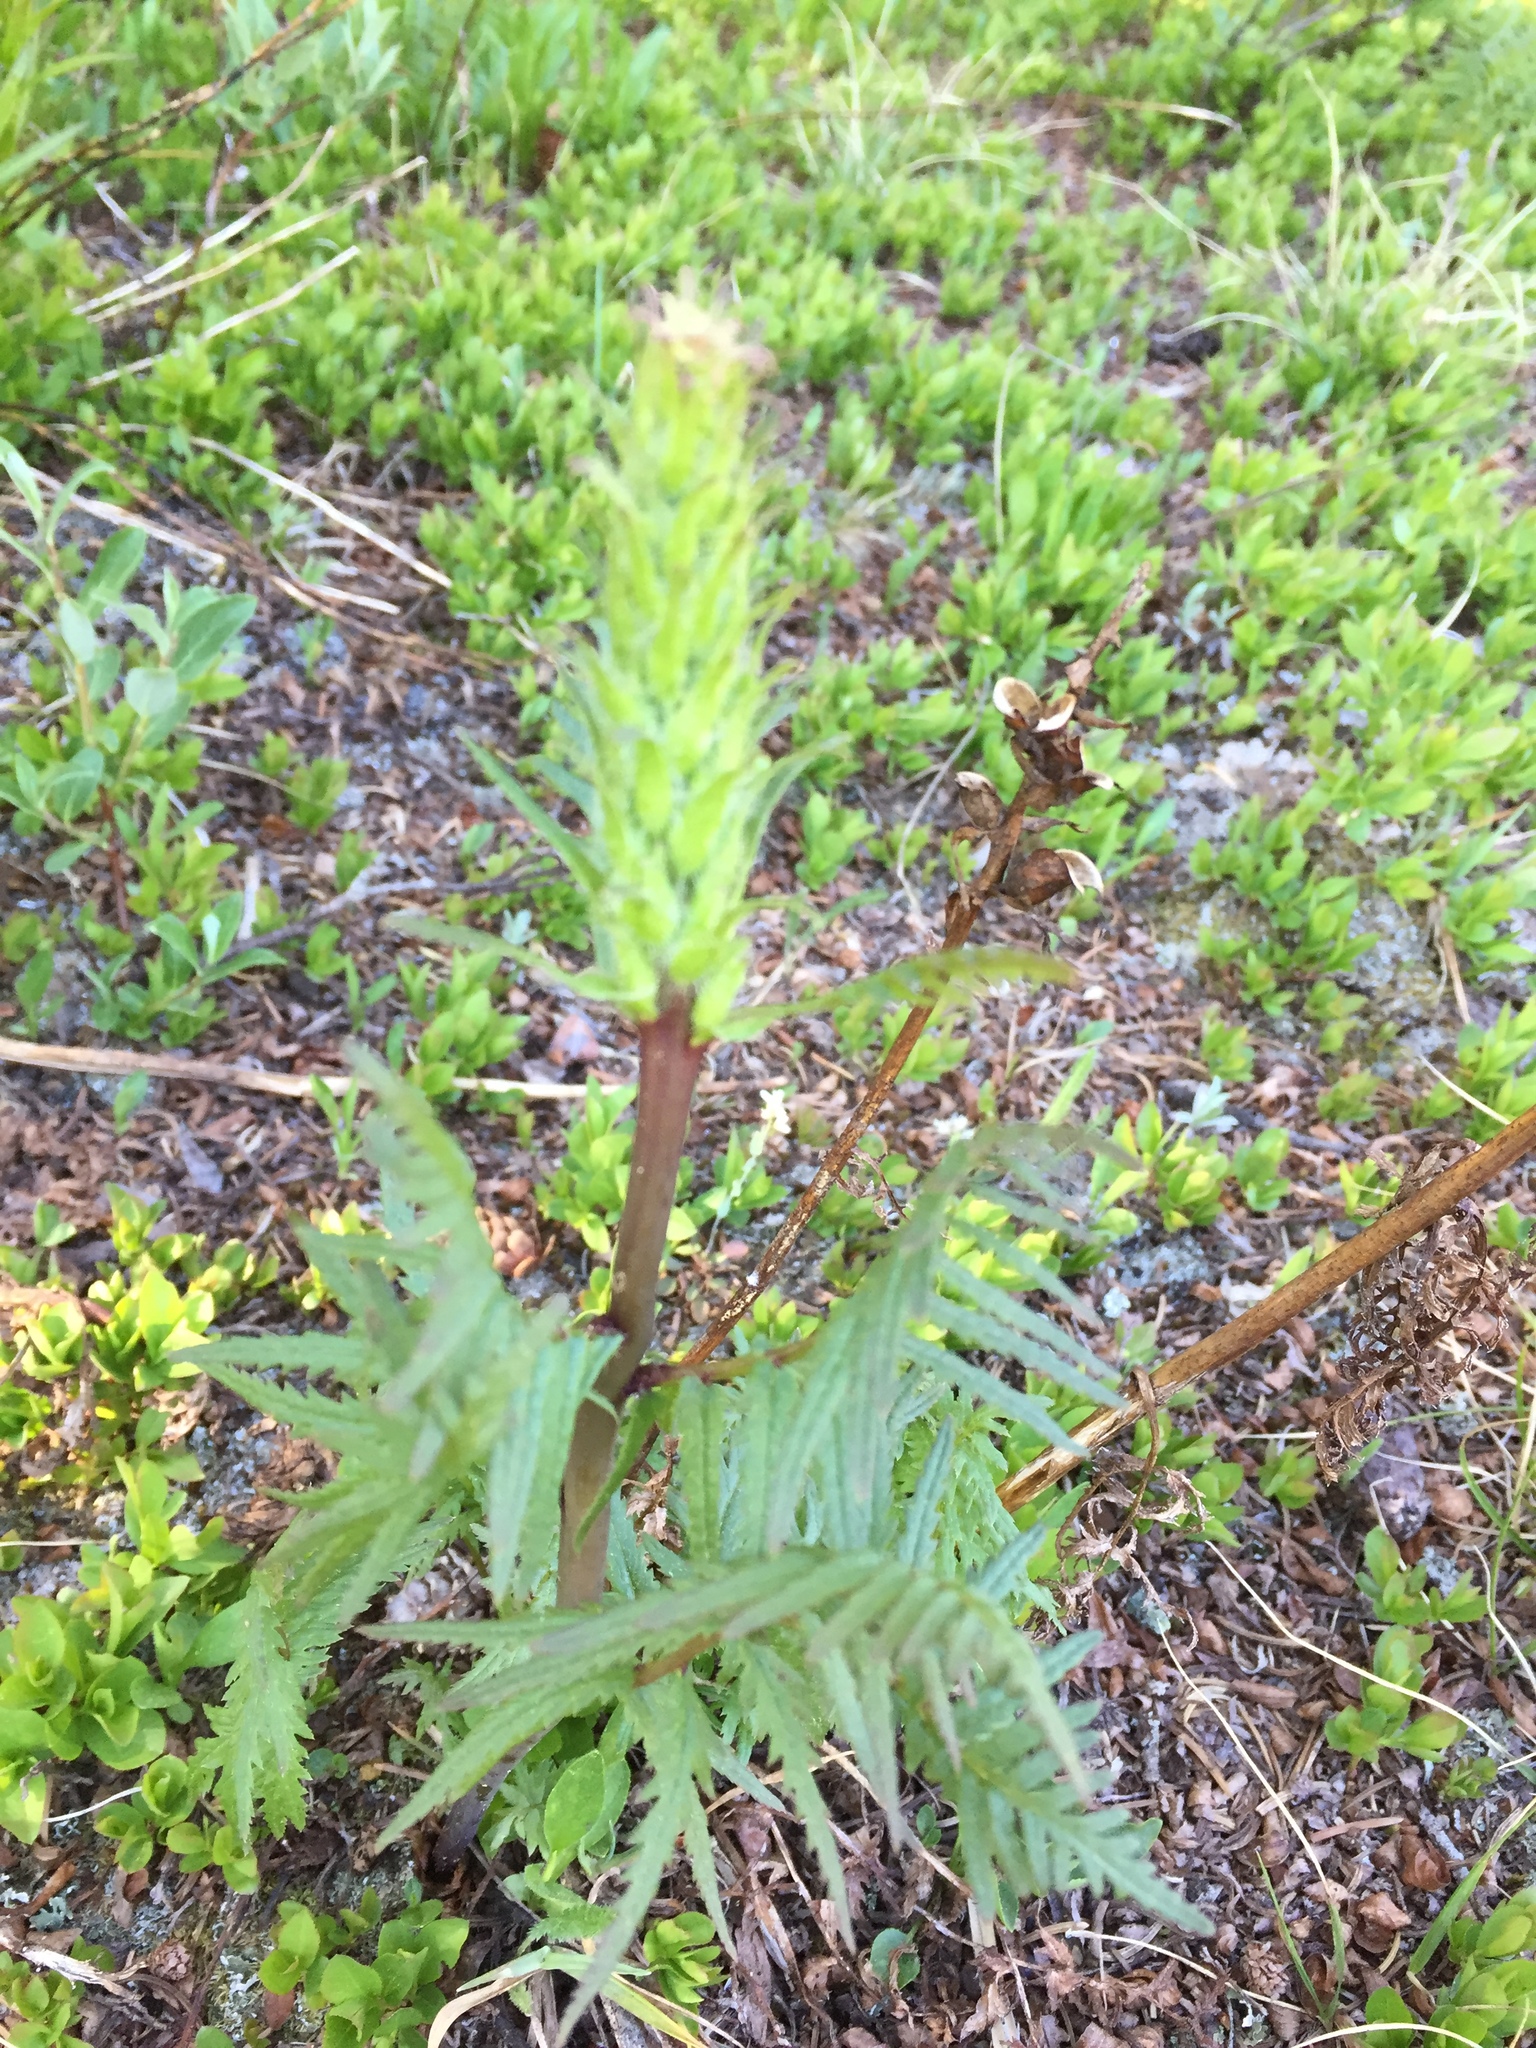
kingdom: Plantae
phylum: Tracheophyta
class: Magnoliopsida
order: Lamiales
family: Orobanchaceae
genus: Pedicularis
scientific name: Pedicularis bracteosa
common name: Bracted lousewort
